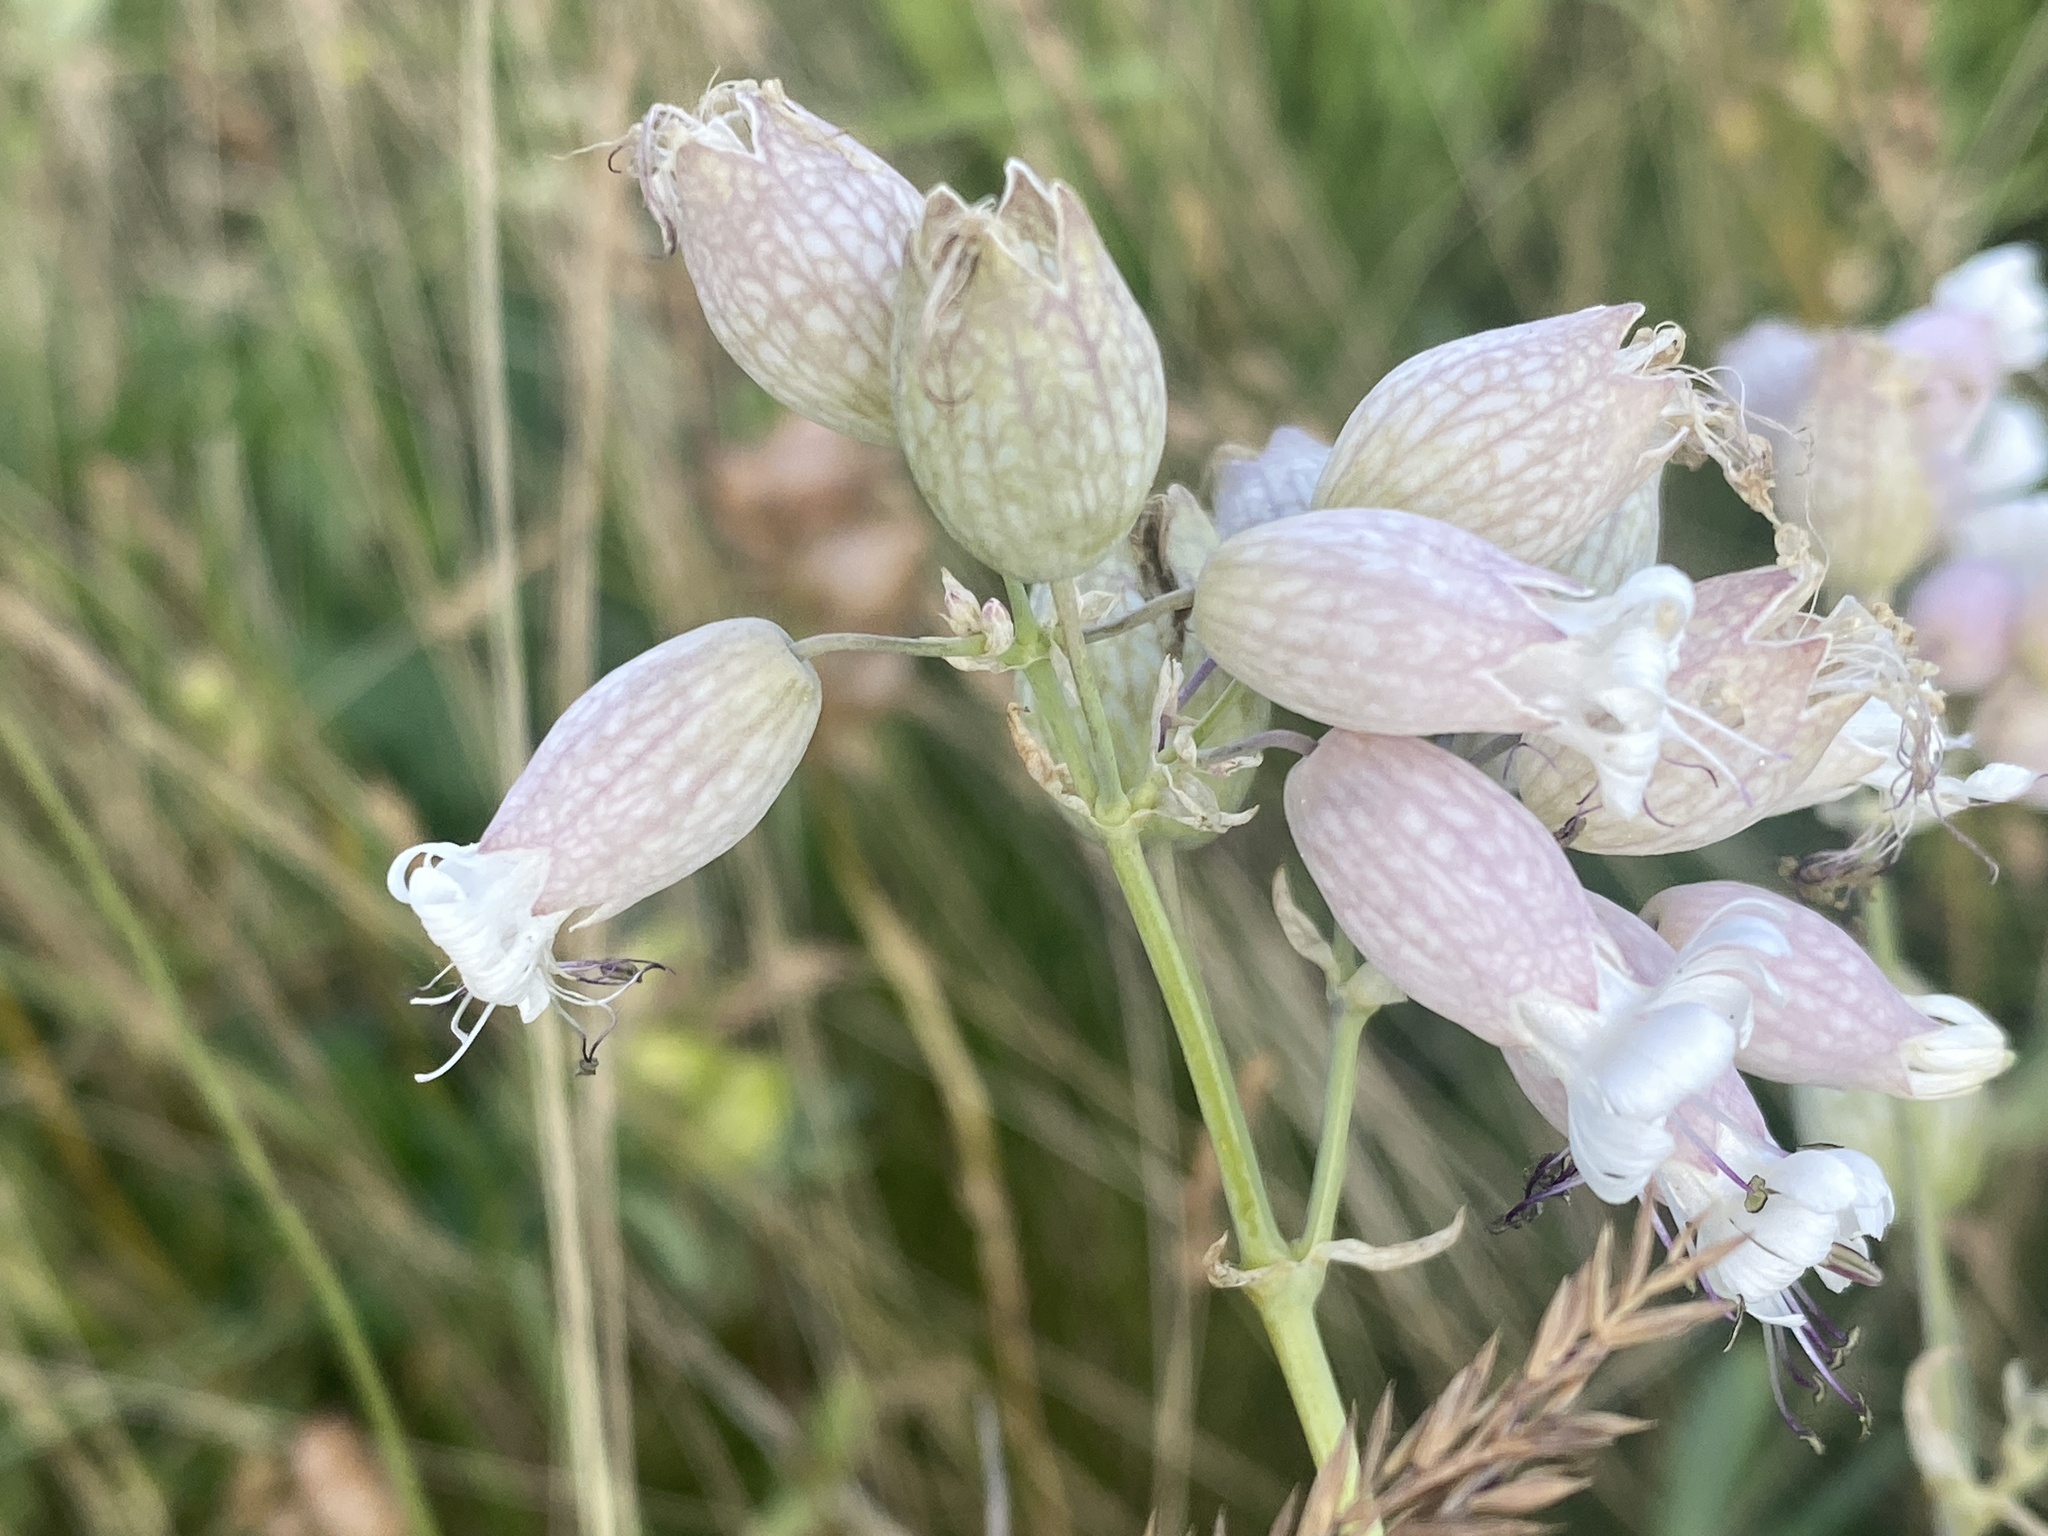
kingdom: Plantae
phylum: Tracheophyta
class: Magnoliopsida
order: Caryophyllales
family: Caryophyllaceae
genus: Silene
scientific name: Silene vulgaris
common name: Bladder campion
